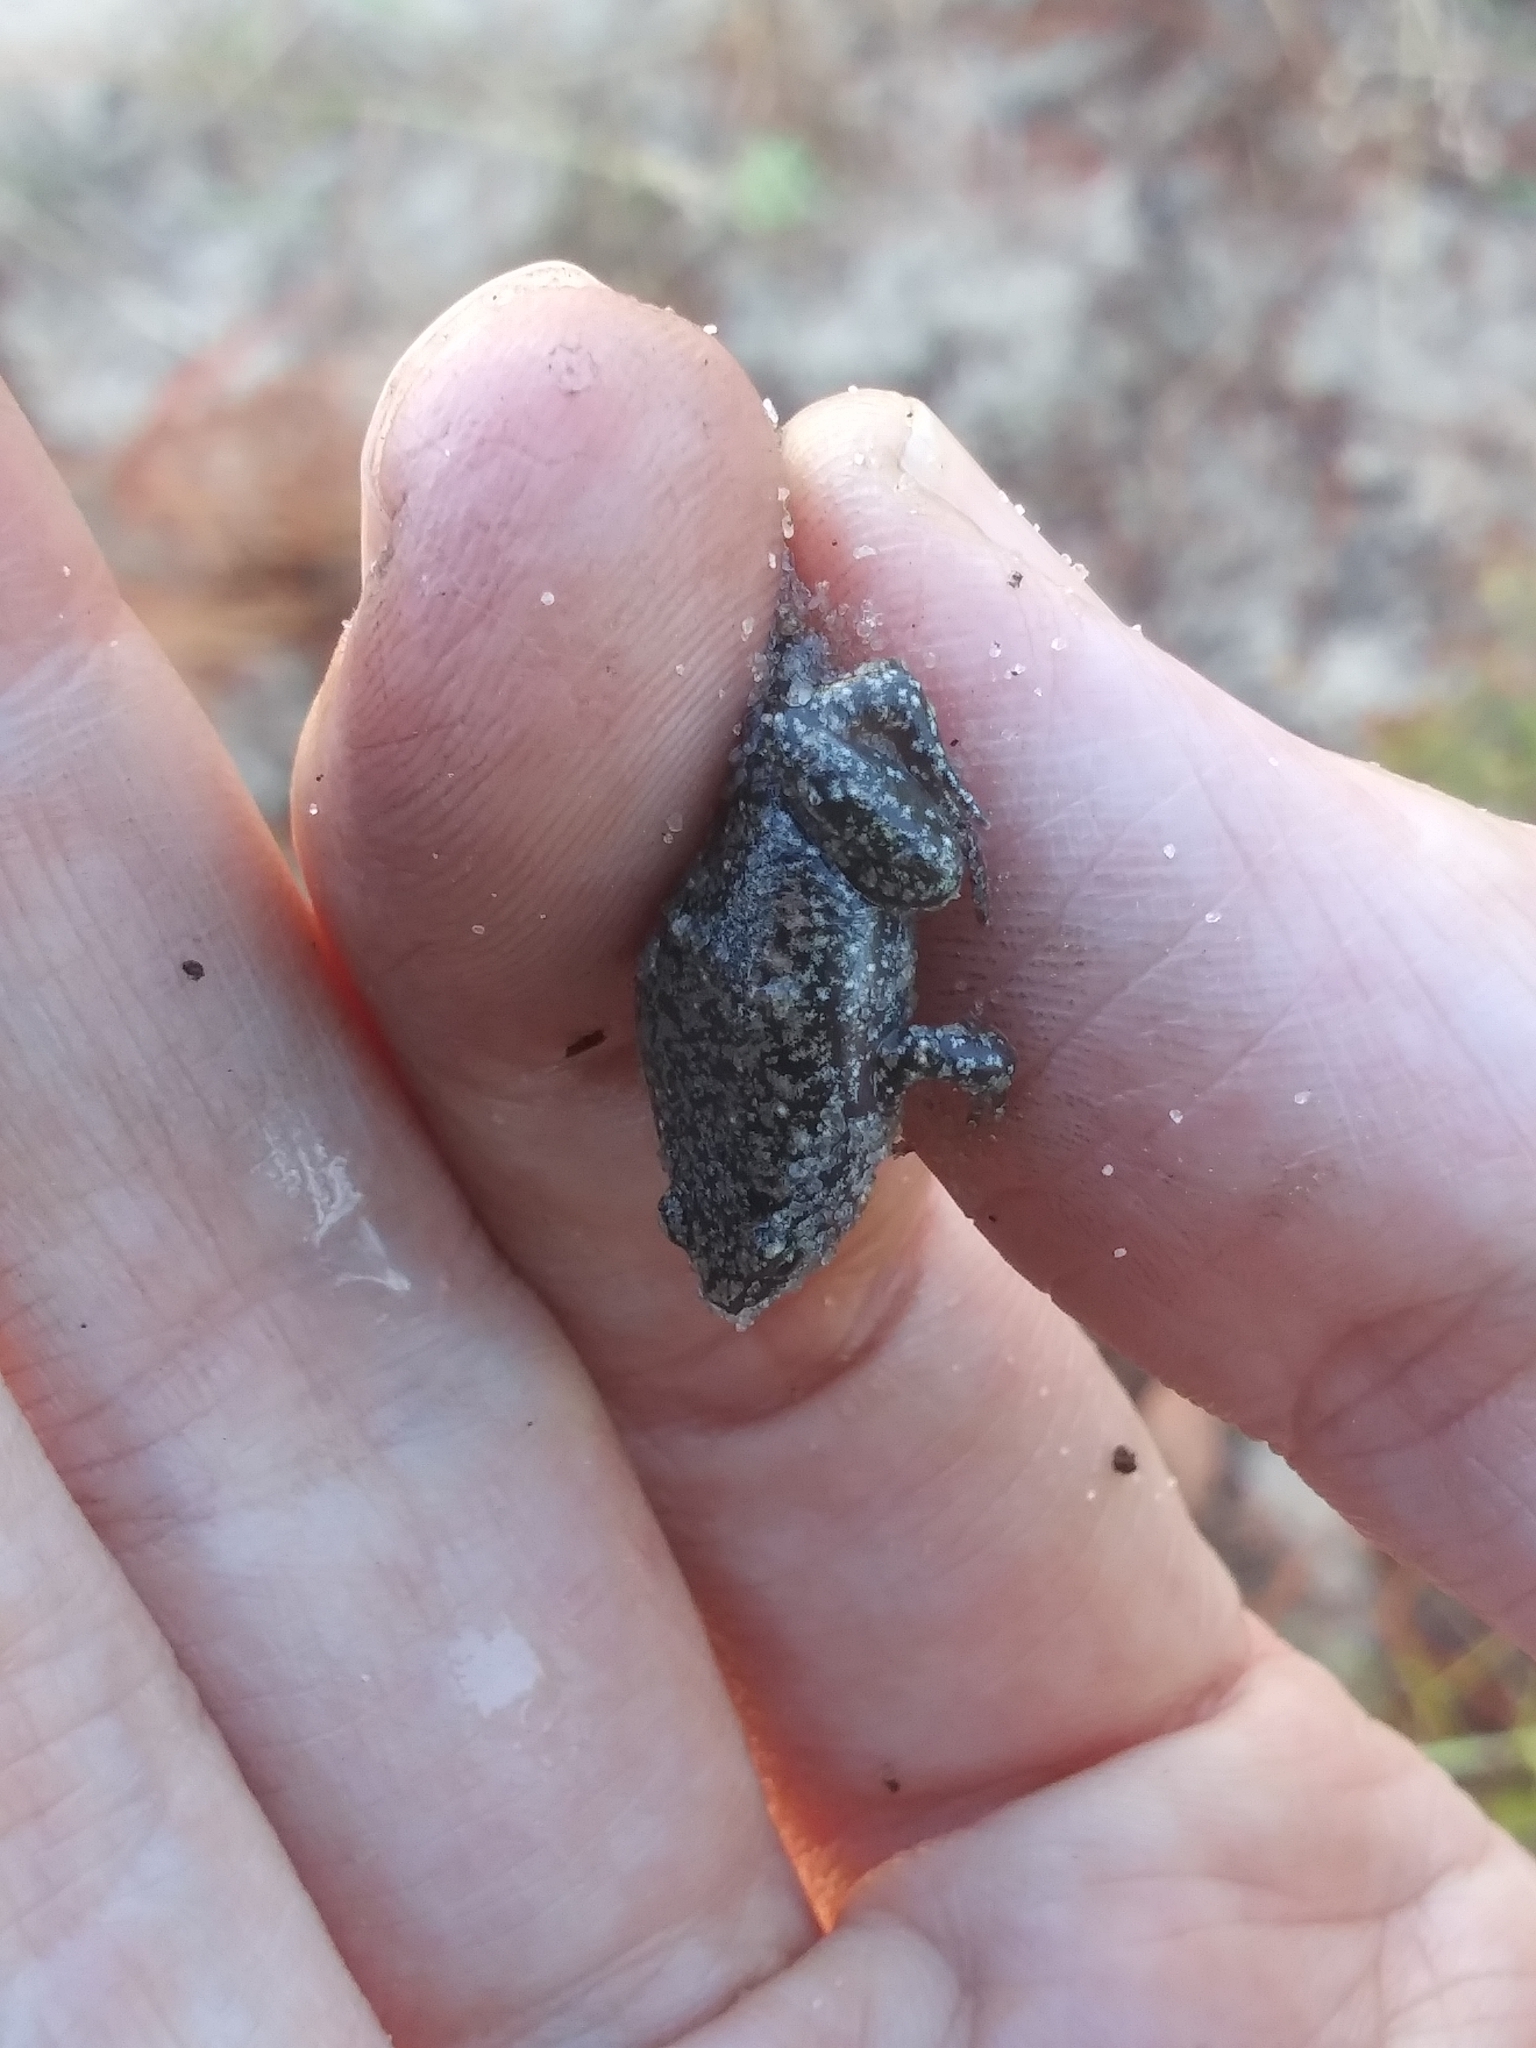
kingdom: Animalia
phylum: Chordata
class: Amphibia
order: Anura
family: Microhylidae
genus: Gastrophryne
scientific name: Gastrophryne carolinensis
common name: Eastern narrowmouth toad
